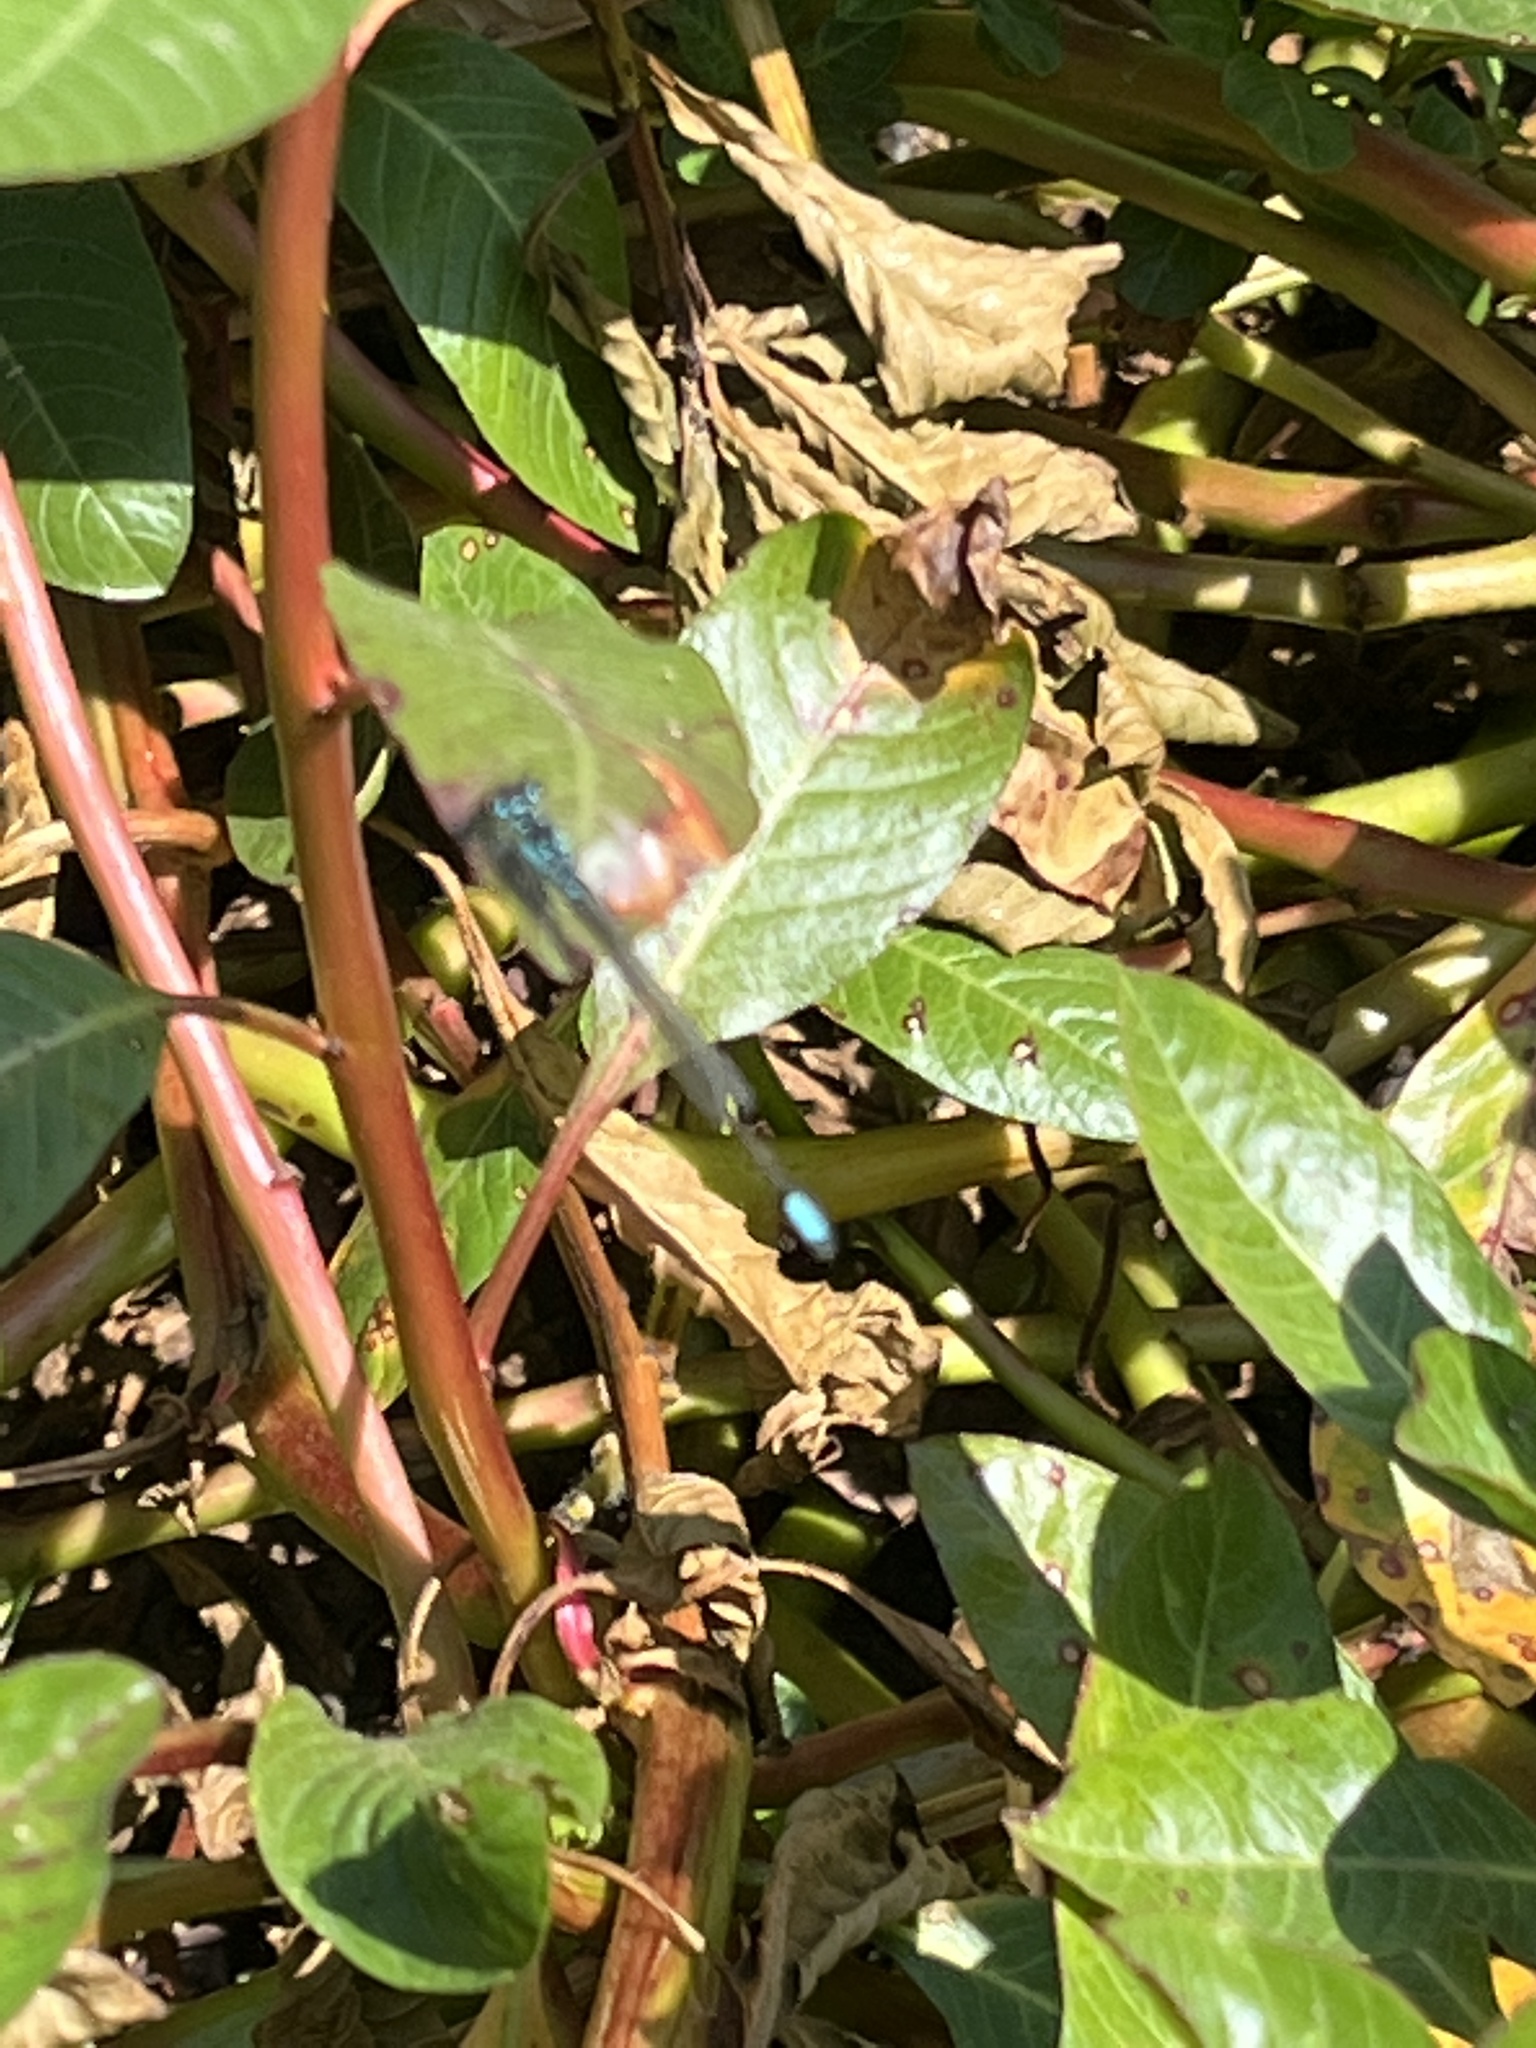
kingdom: Animalia
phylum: Arthropoda
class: Insecta
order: Odonata
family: Coenagrionidae
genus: Ischnura
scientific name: Ischnura cervula
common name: Pacific forktail
